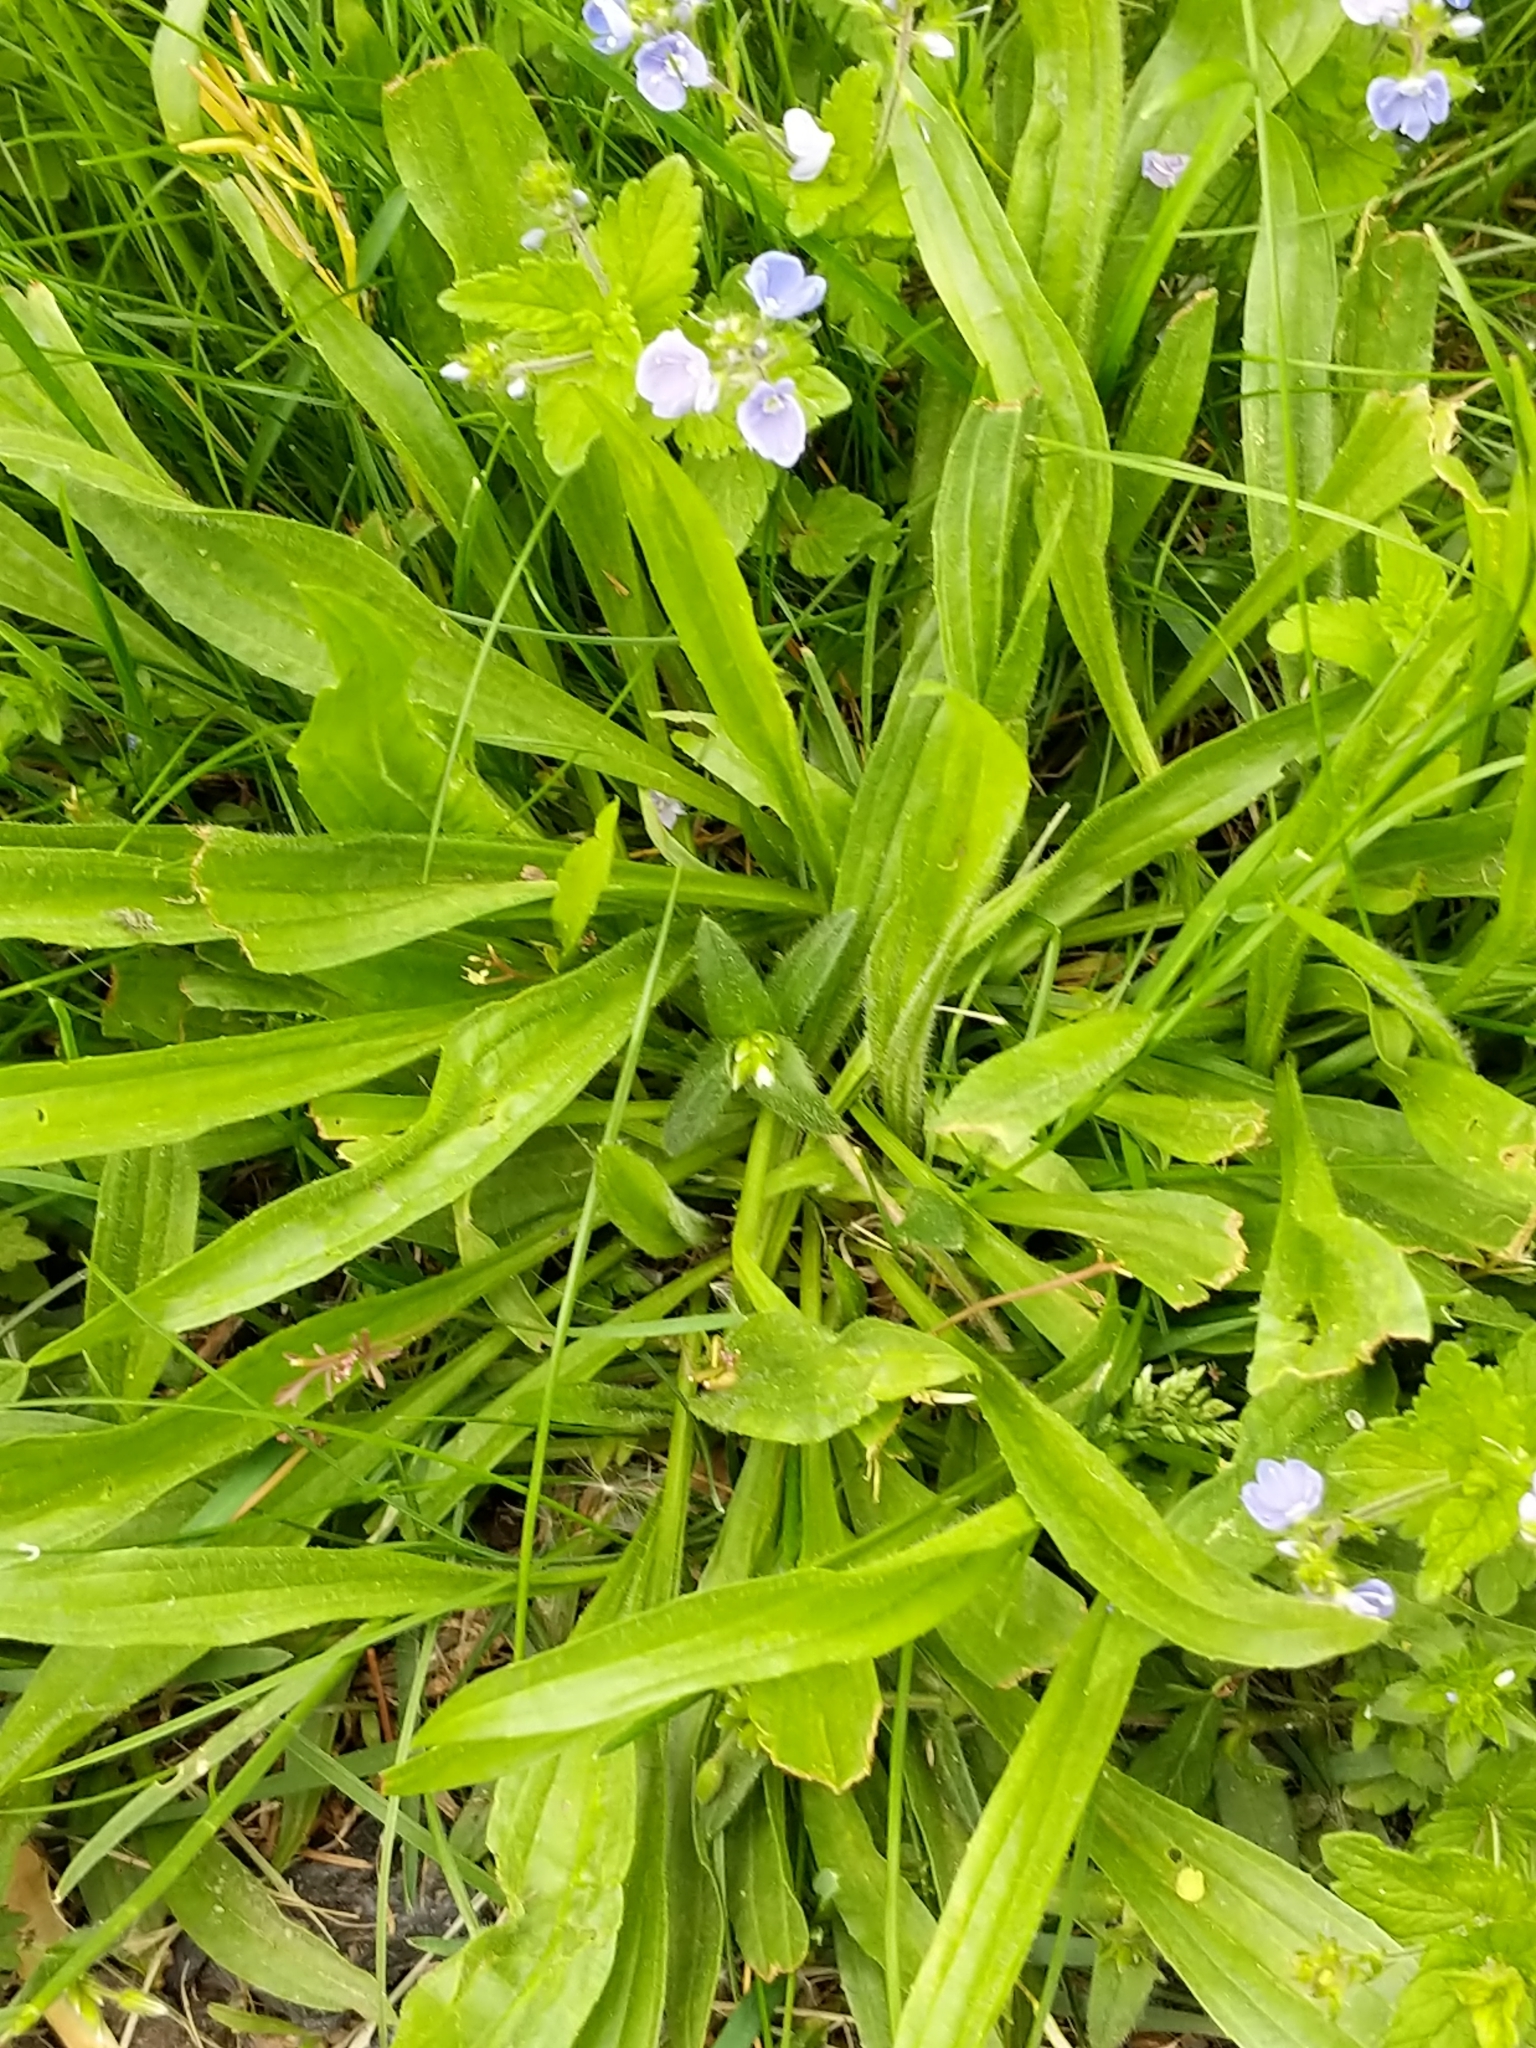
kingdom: Plantae
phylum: Tracheophyta
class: Magnoliopsida
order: Lamiales
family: Plantaginaceae
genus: Plantago
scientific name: Plantago lanceolata
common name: Ribwort plantain
